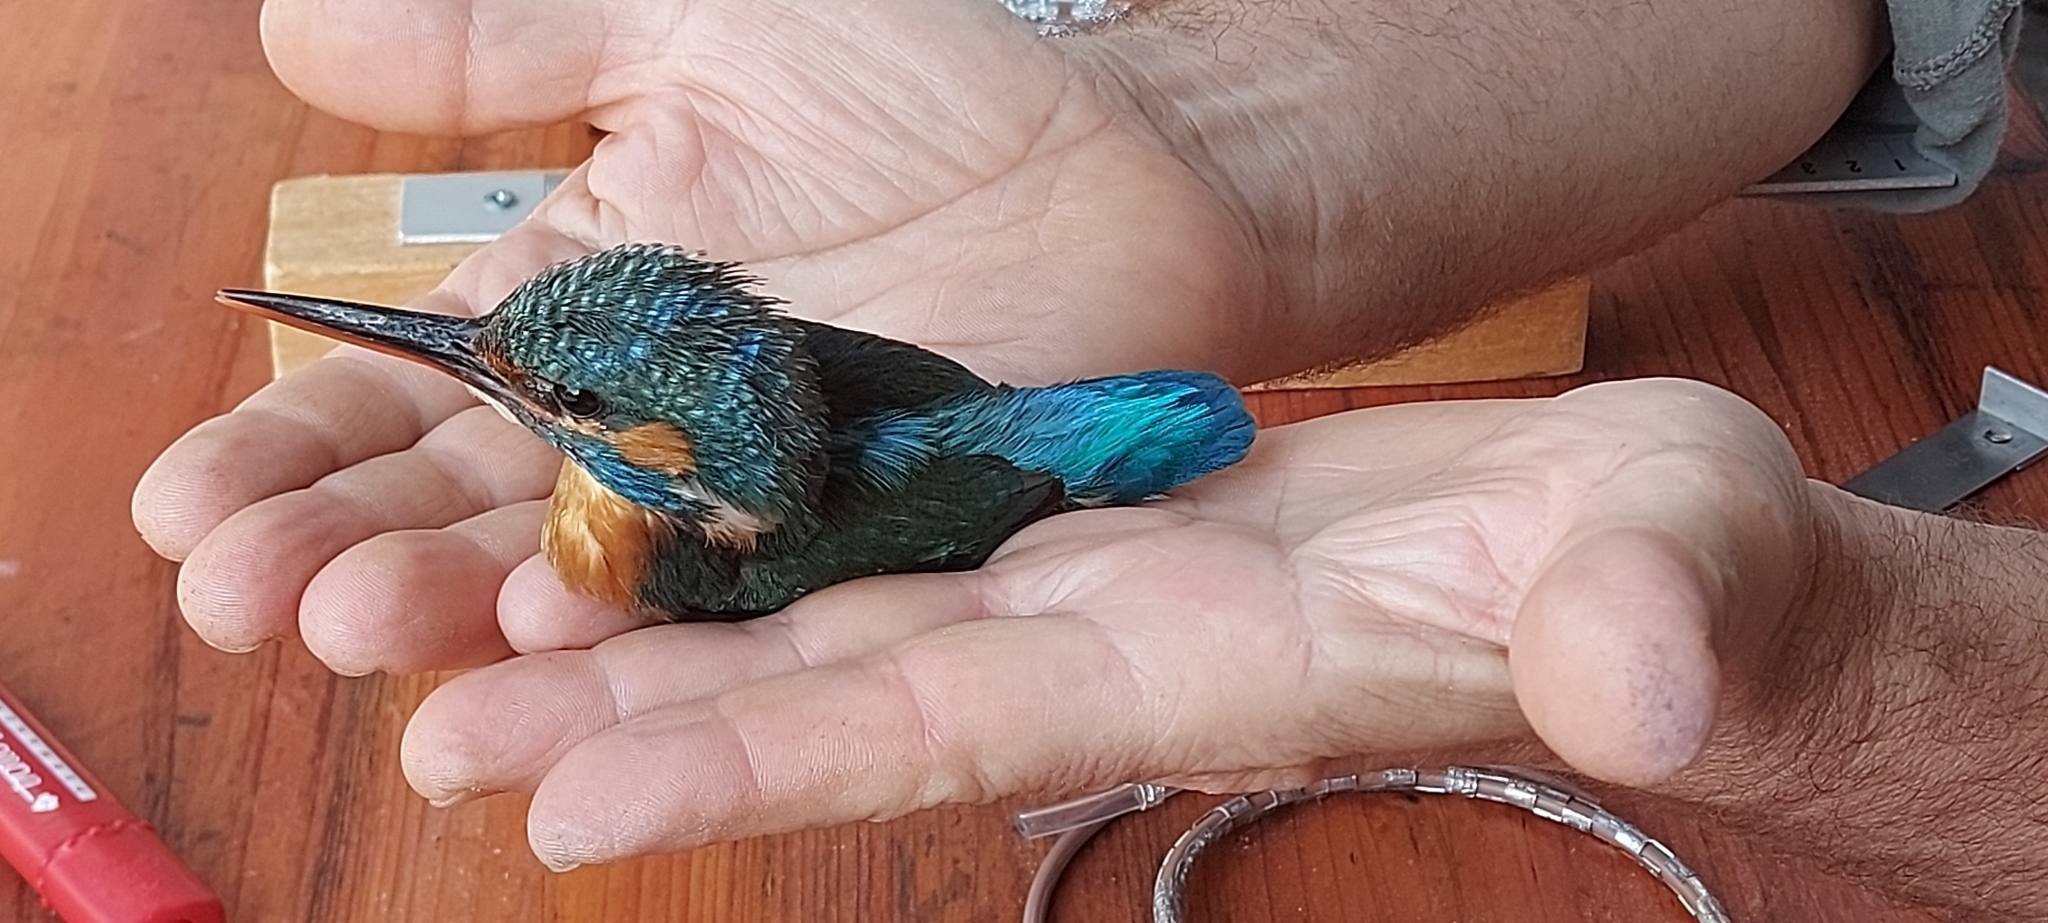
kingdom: Animalia
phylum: Chordata
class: Aves
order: Coraciiformes
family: Alcedinidae
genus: Alcedo
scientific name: Alcedo atthis
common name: Common kingfisher
